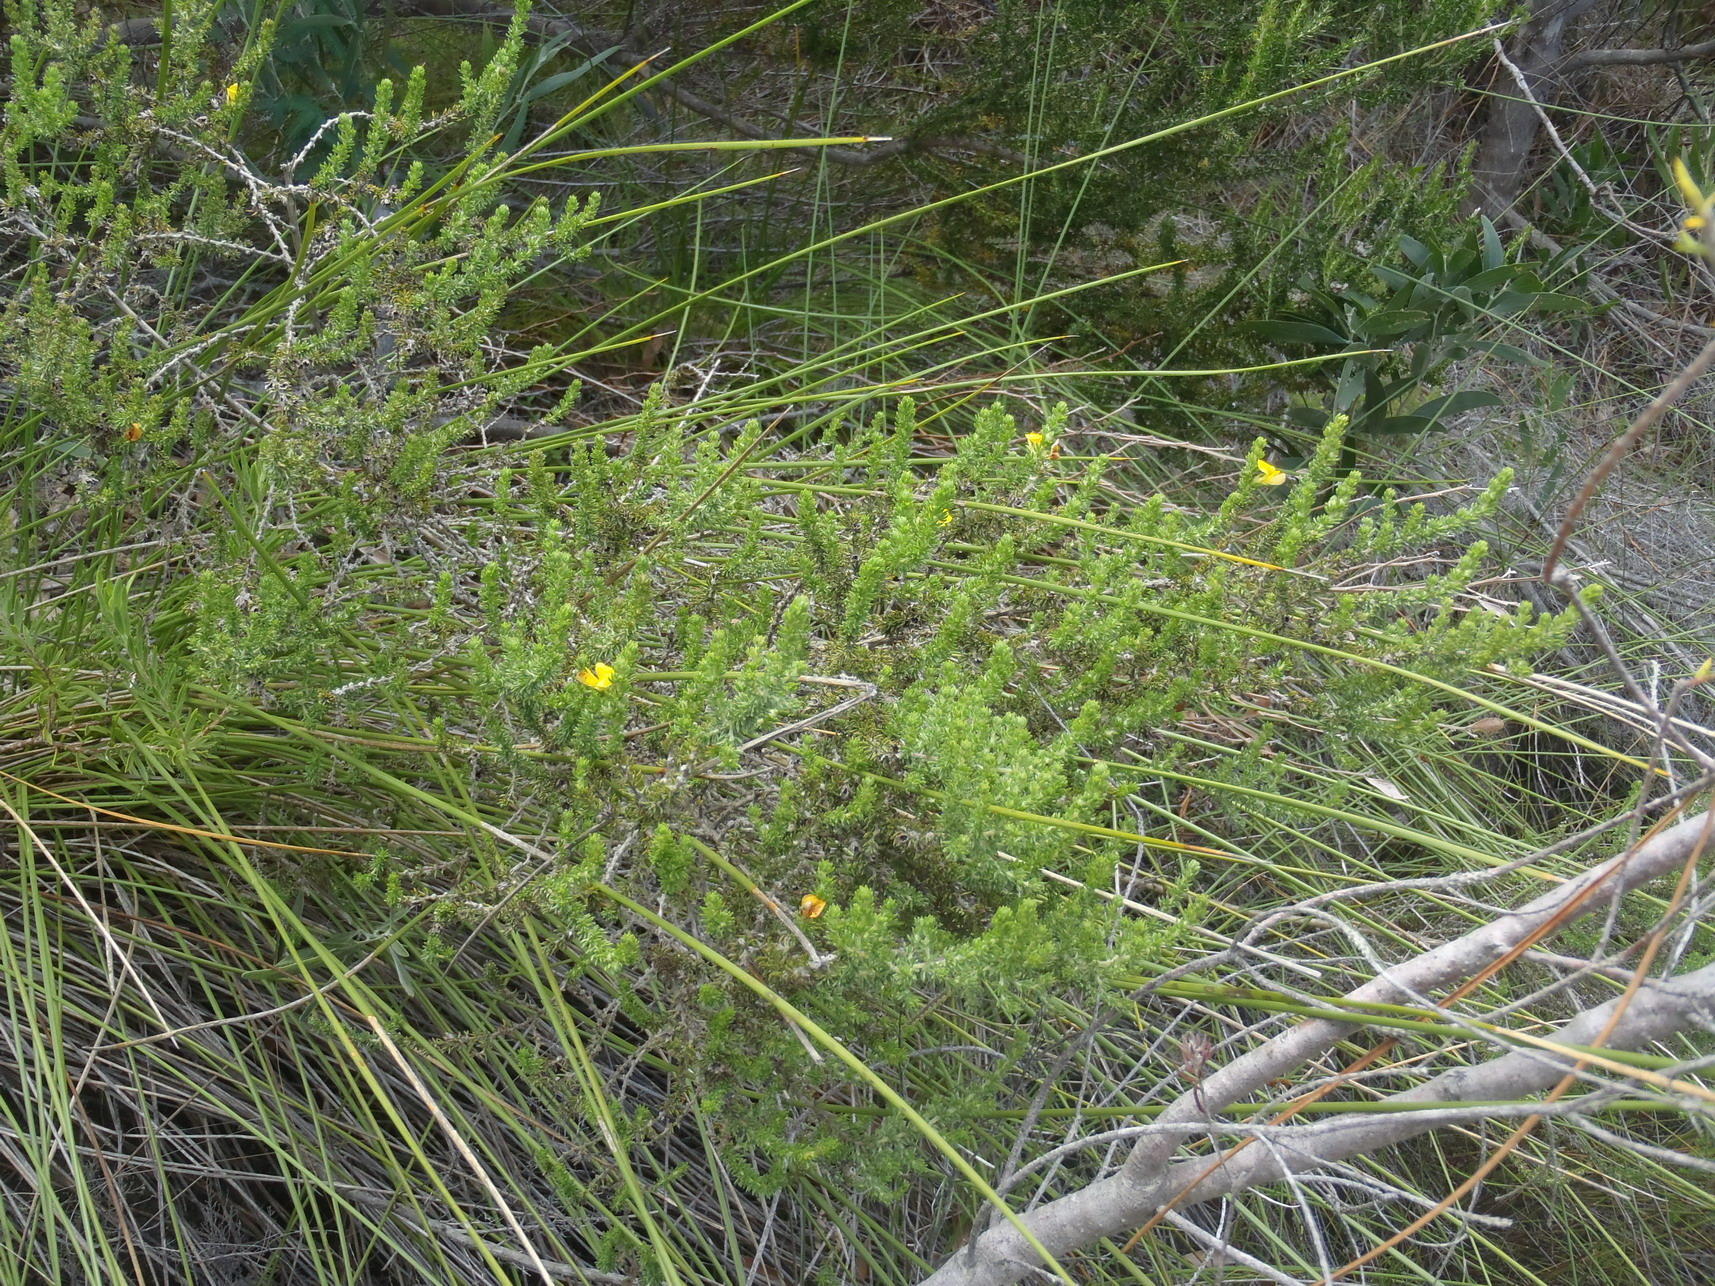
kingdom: Plantae
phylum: Tracheophyta
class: Magnoliopsida
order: Fabales
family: Fabaceae
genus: Aspalathus
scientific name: Aspalathus opaca
